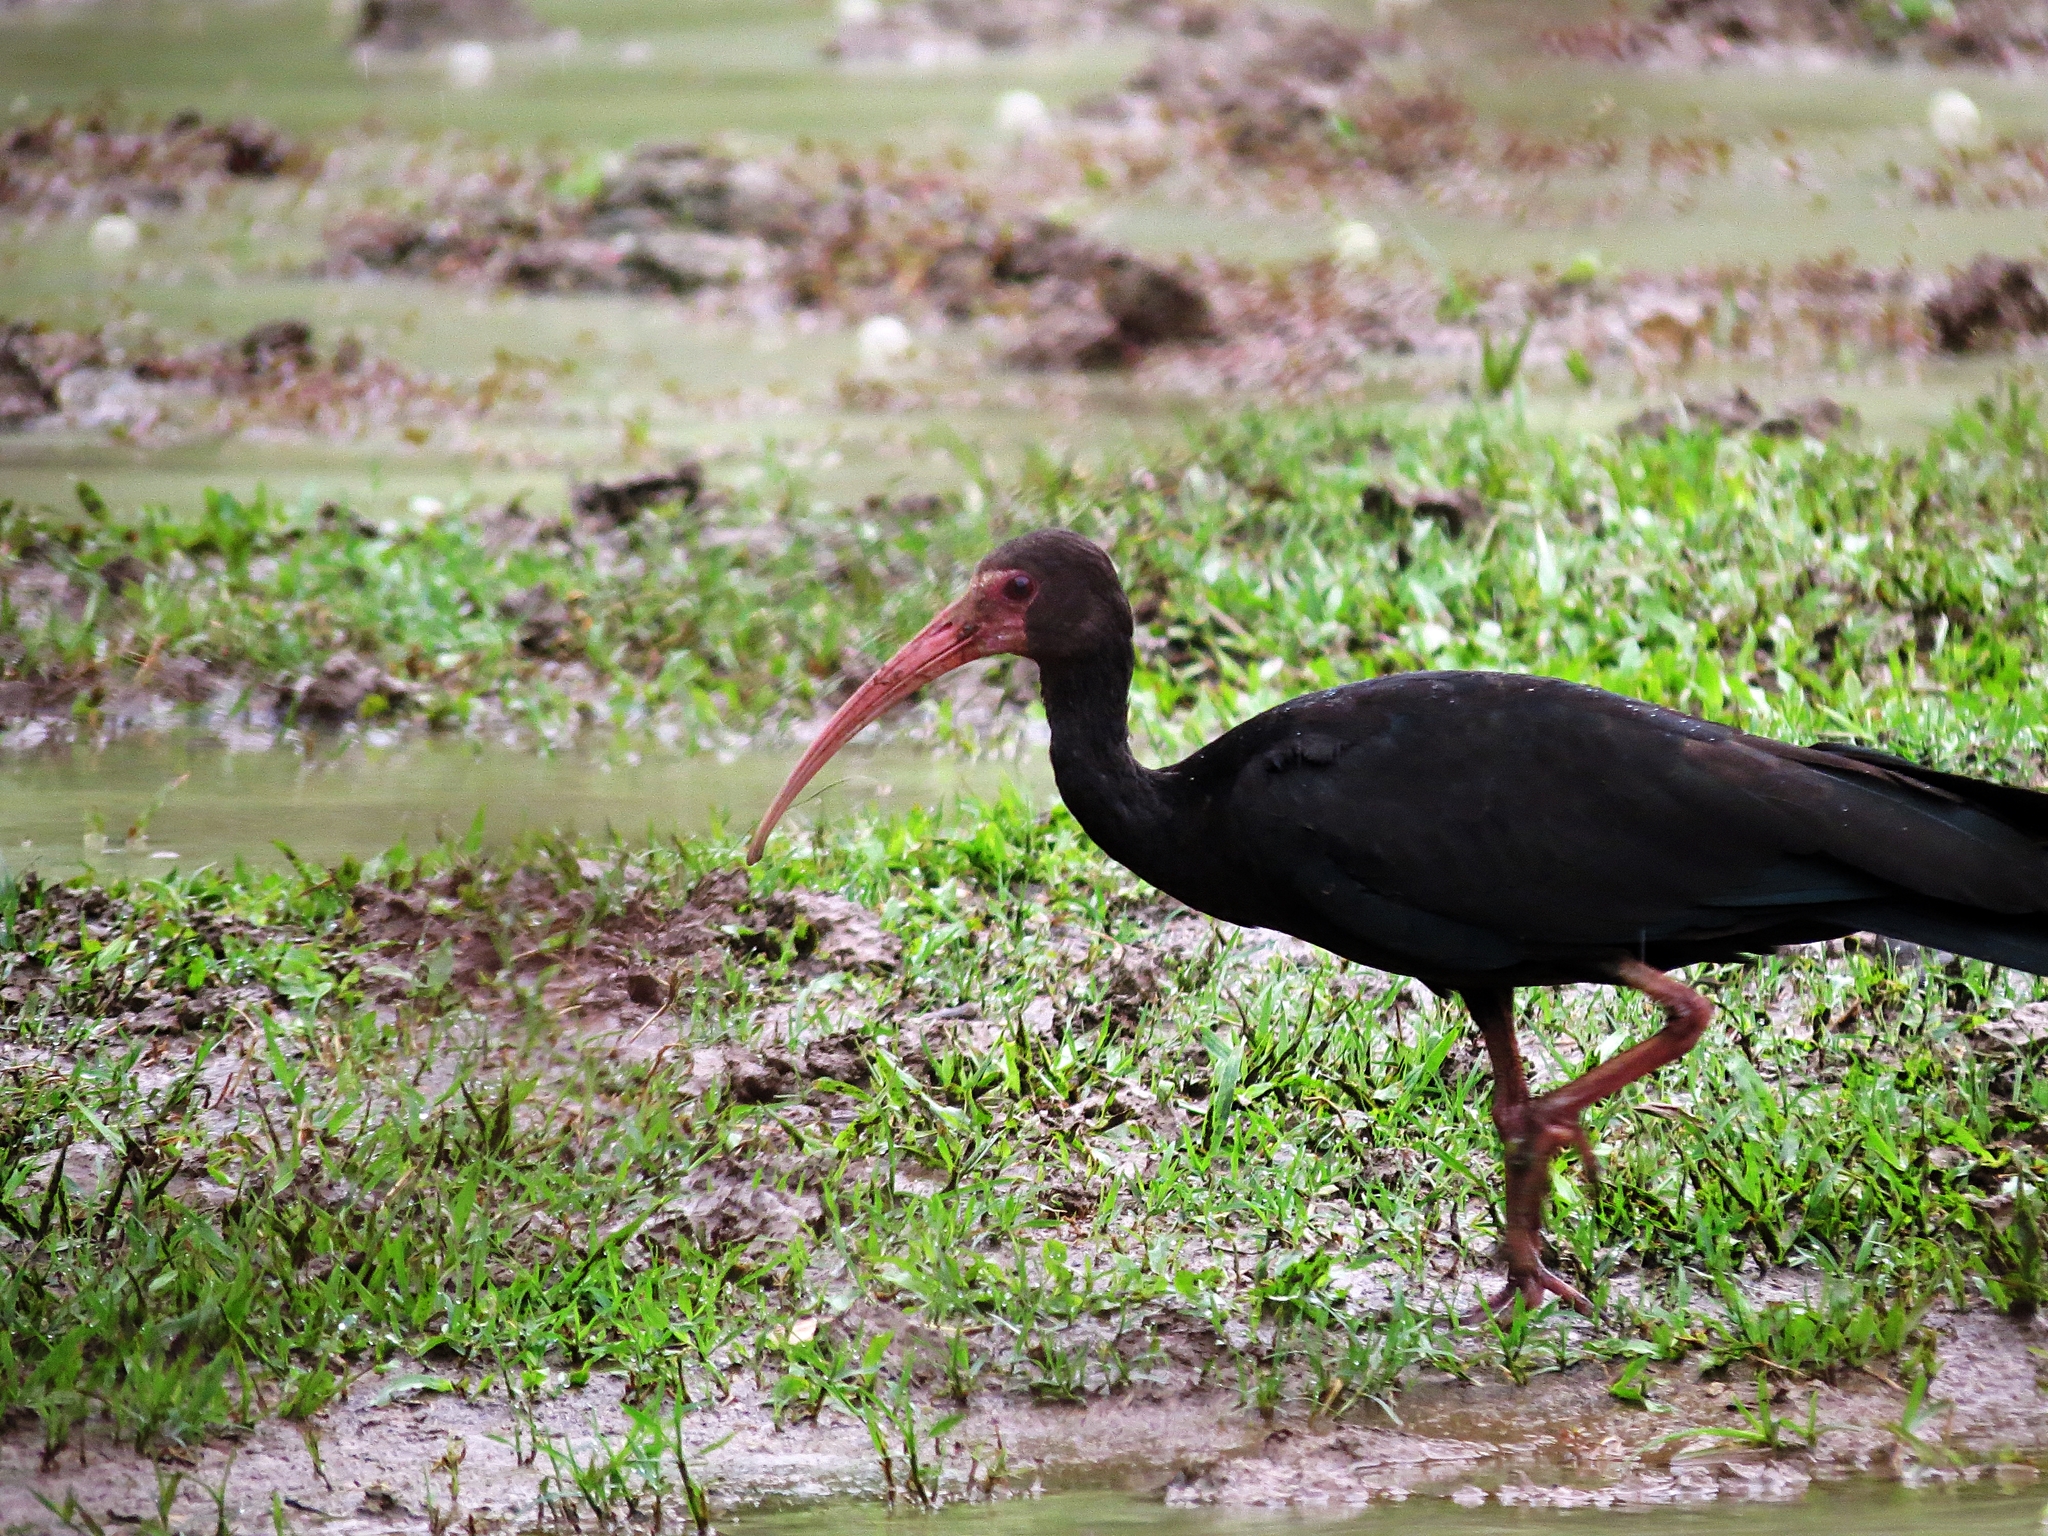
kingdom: Animalia
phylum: Chordata
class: Aves
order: Pelecaniformes
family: Threskiornithidae
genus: Phimosus
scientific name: Phimosus infuscatus
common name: Bare-faced ibis
